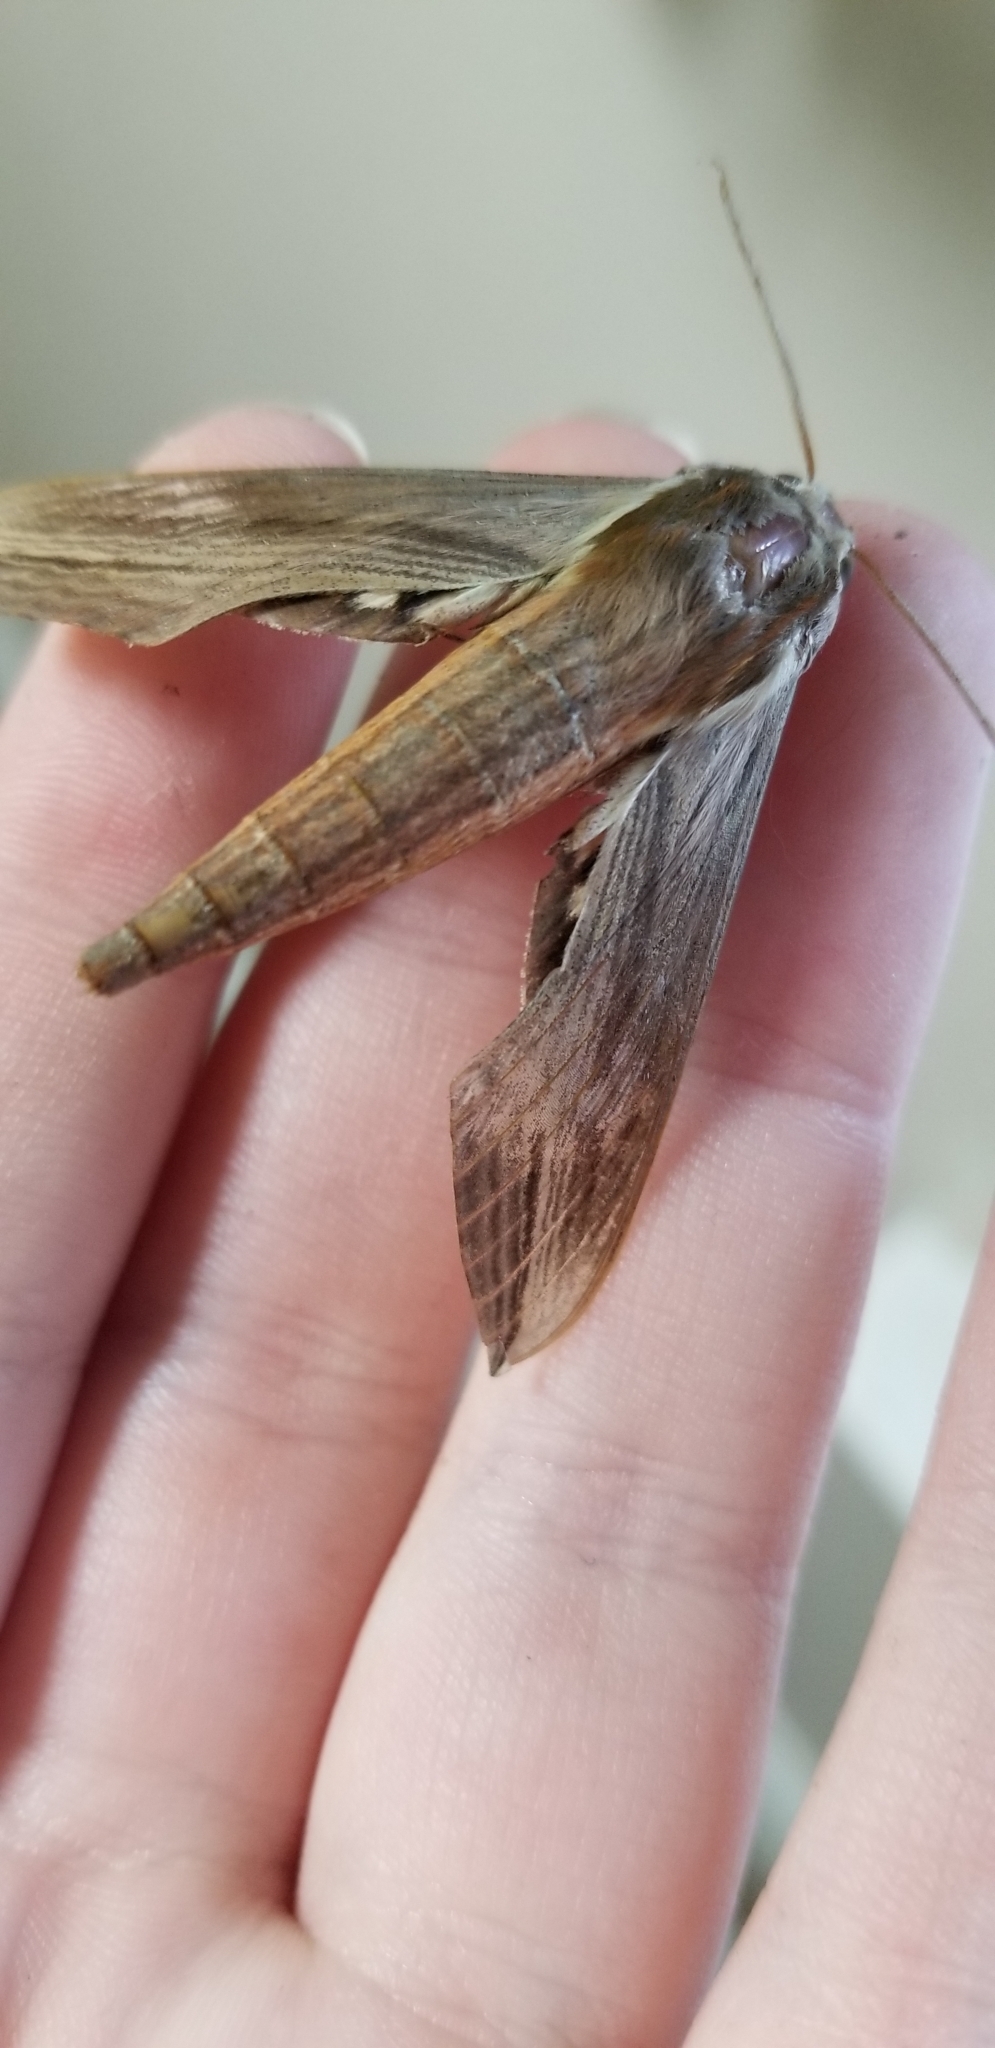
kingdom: Animalia
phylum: Arthropoda
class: Insecta
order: Lepidoptera
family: Sphingidae
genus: Xylophanes
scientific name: Xylophanes tersa
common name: Tersa sphinx
